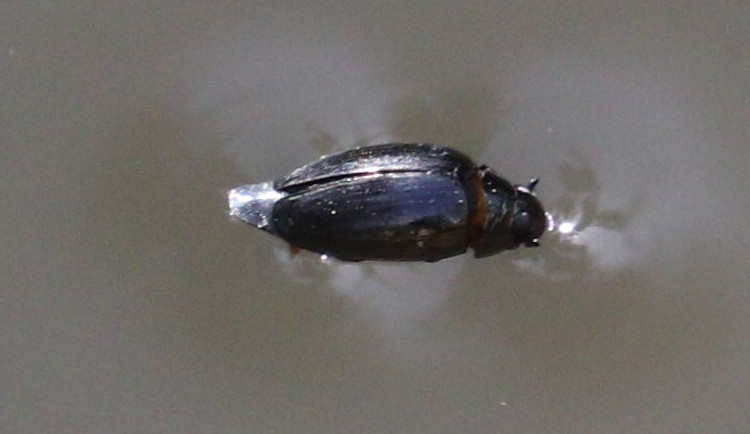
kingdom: Animalia
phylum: Arthropoda
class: Insecta
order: Coleoptera
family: Gyrinidae
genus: Gyrinus
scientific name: Gyrinus
